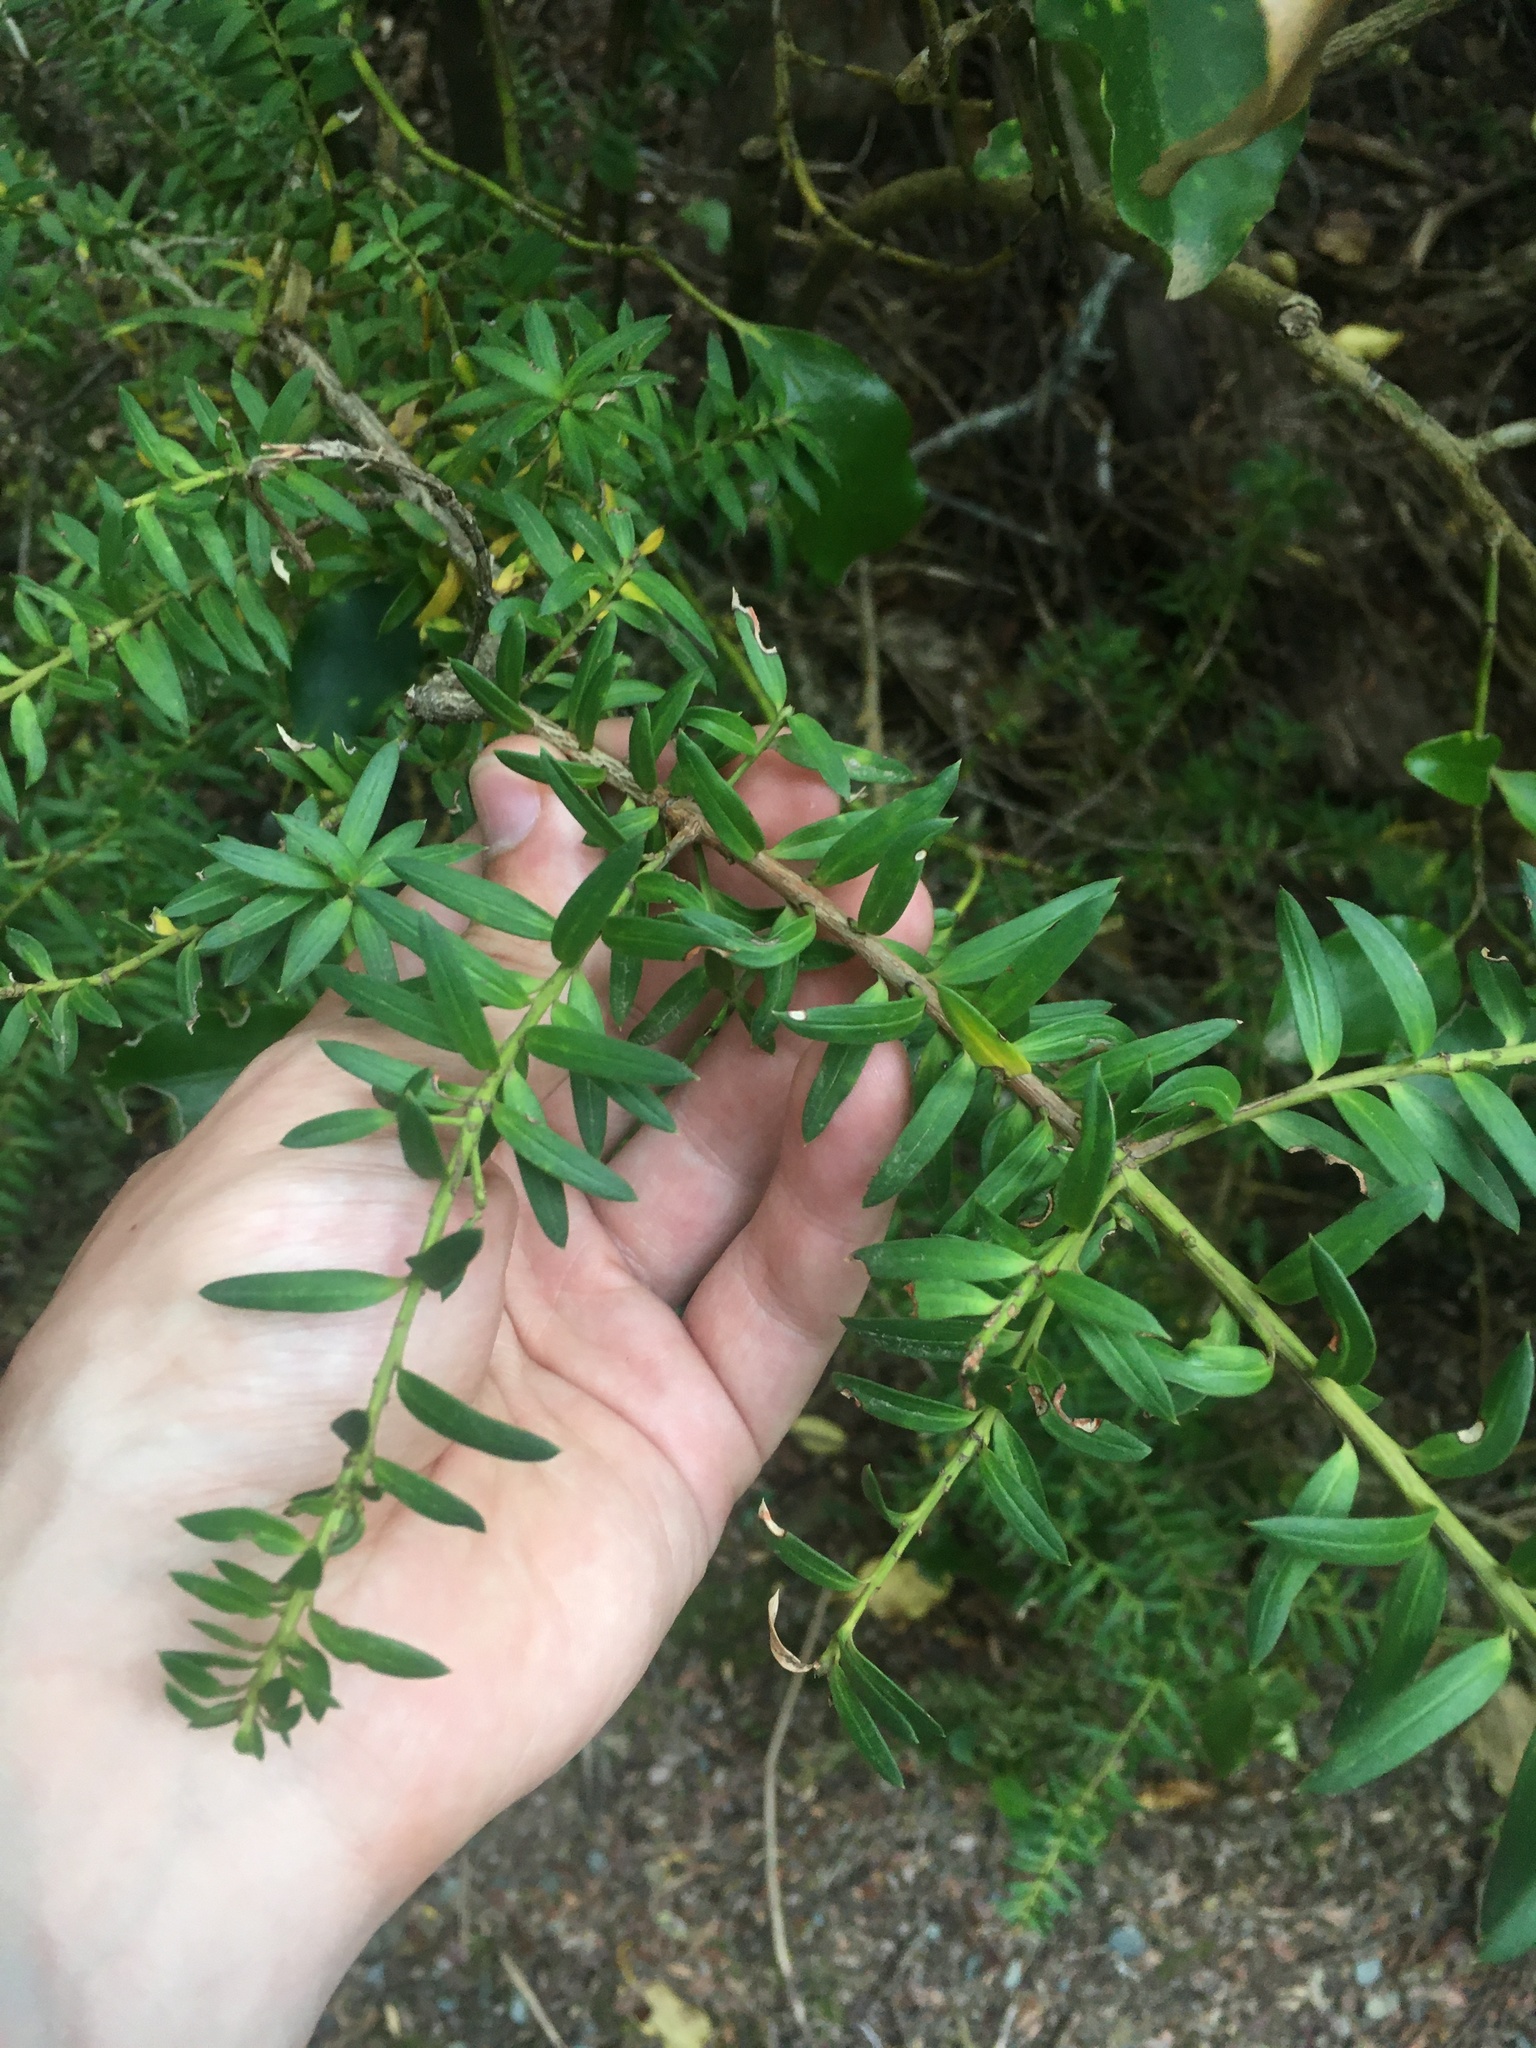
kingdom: Plantae
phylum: Tracheophyta
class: Pinopsida
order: Pinales
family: Podocarpaceae
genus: Podocarpus
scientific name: Podocarpus laetus
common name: Hall's totara
